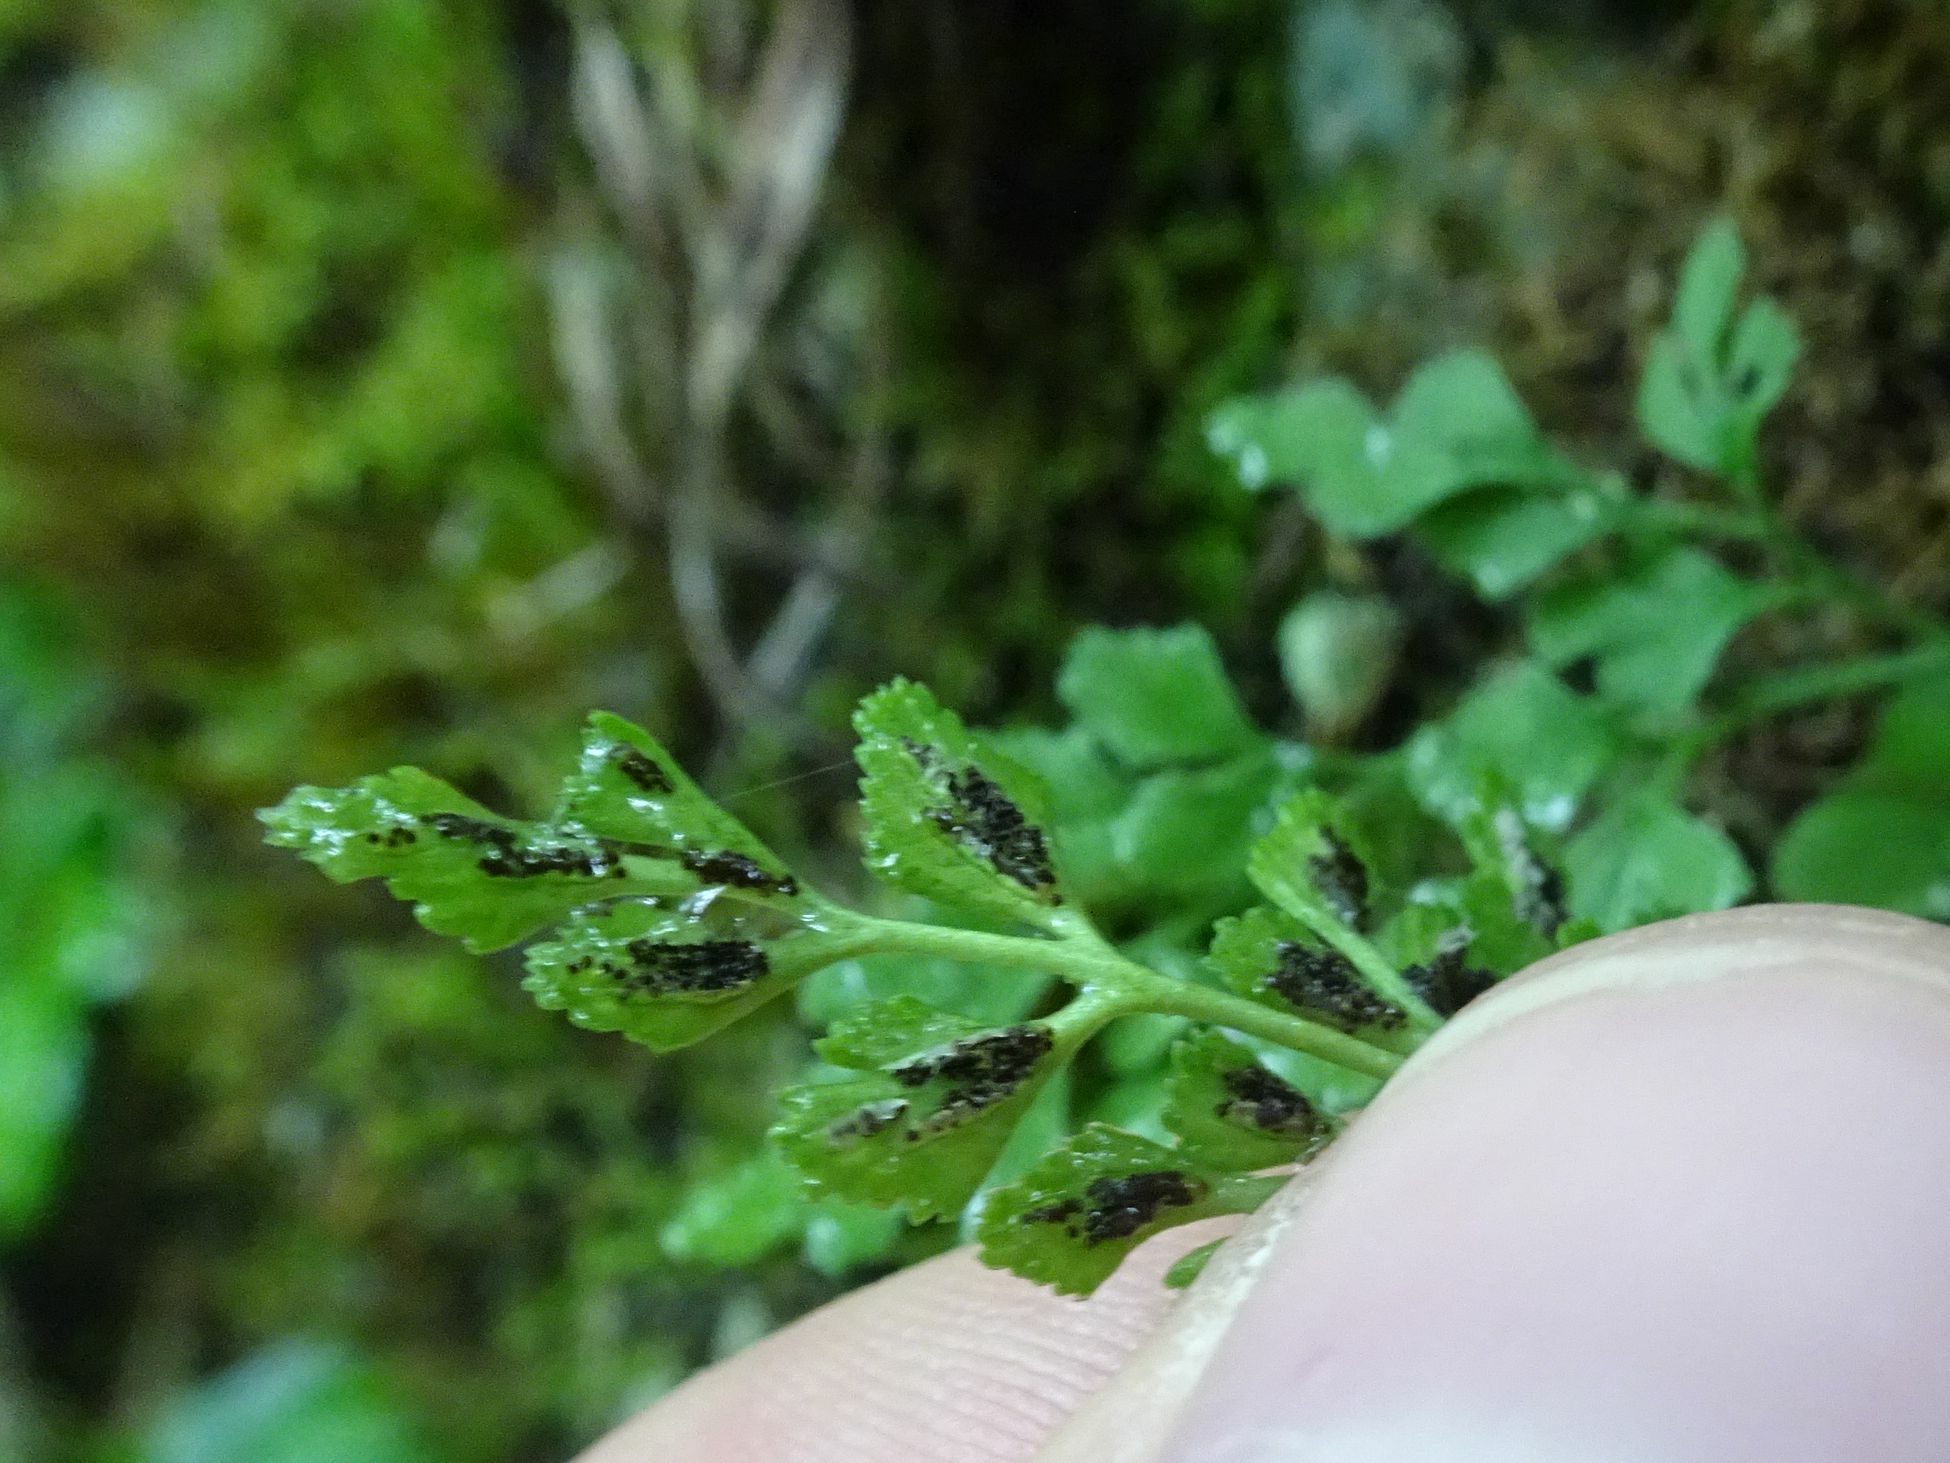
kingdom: Plantae
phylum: Tracheophyta
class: Polypodiopsida
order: Polypodiales
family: Aspleniaceae
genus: Asplenium
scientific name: Asplenium ruta-muraria
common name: Wall-rue
